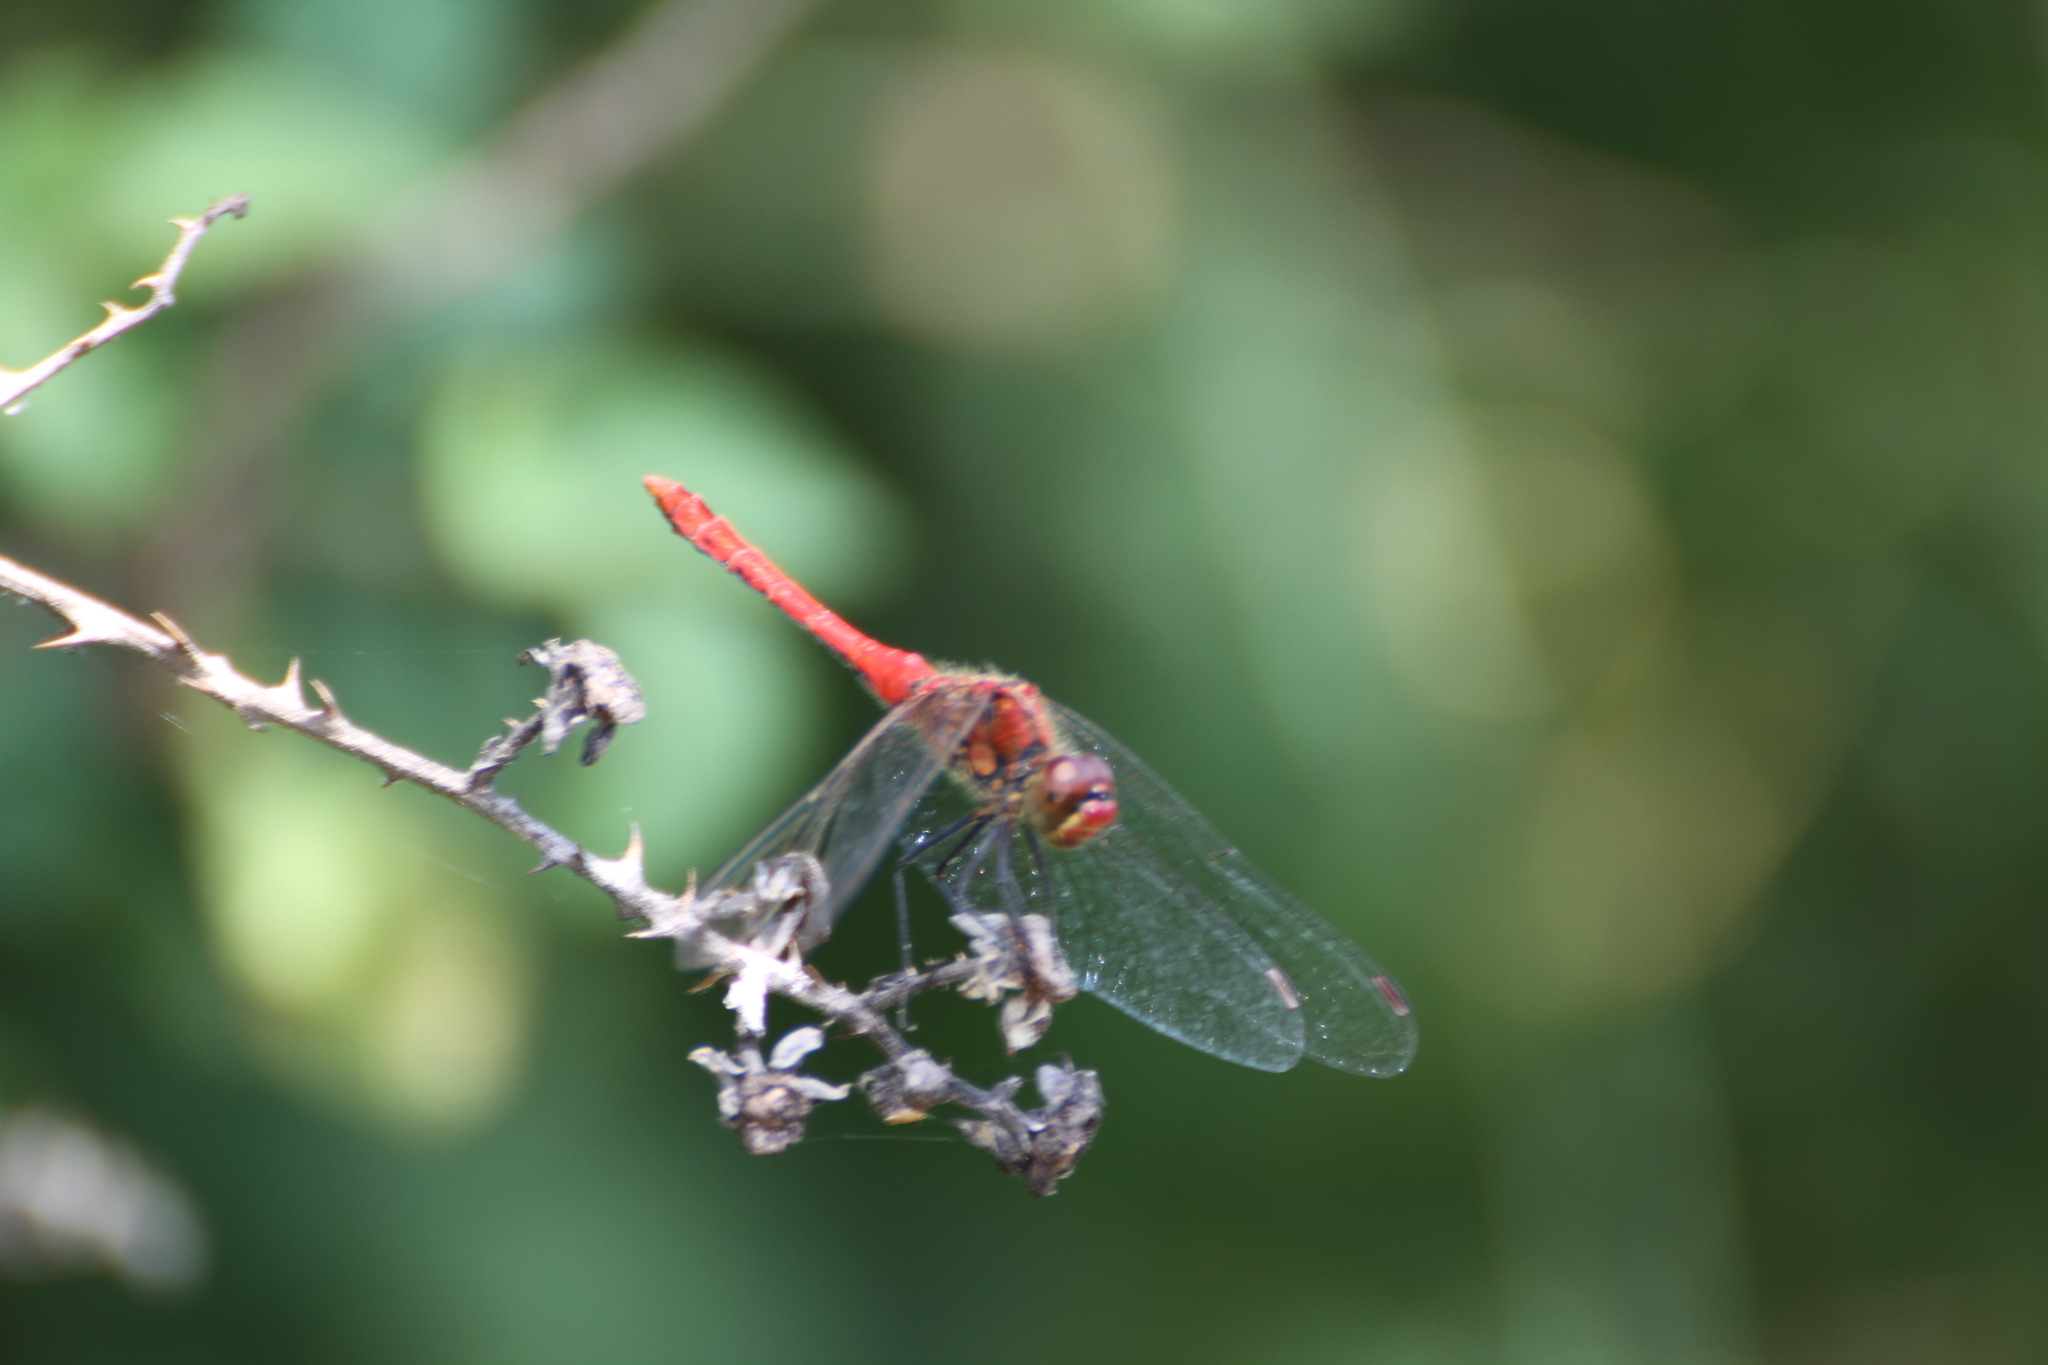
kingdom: Animalia
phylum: Arthropoda
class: Insecta
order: Odonata
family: Libellulidae
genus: Sympetrum
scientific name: Sympetrum sanguineum
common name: Ruddy darter
